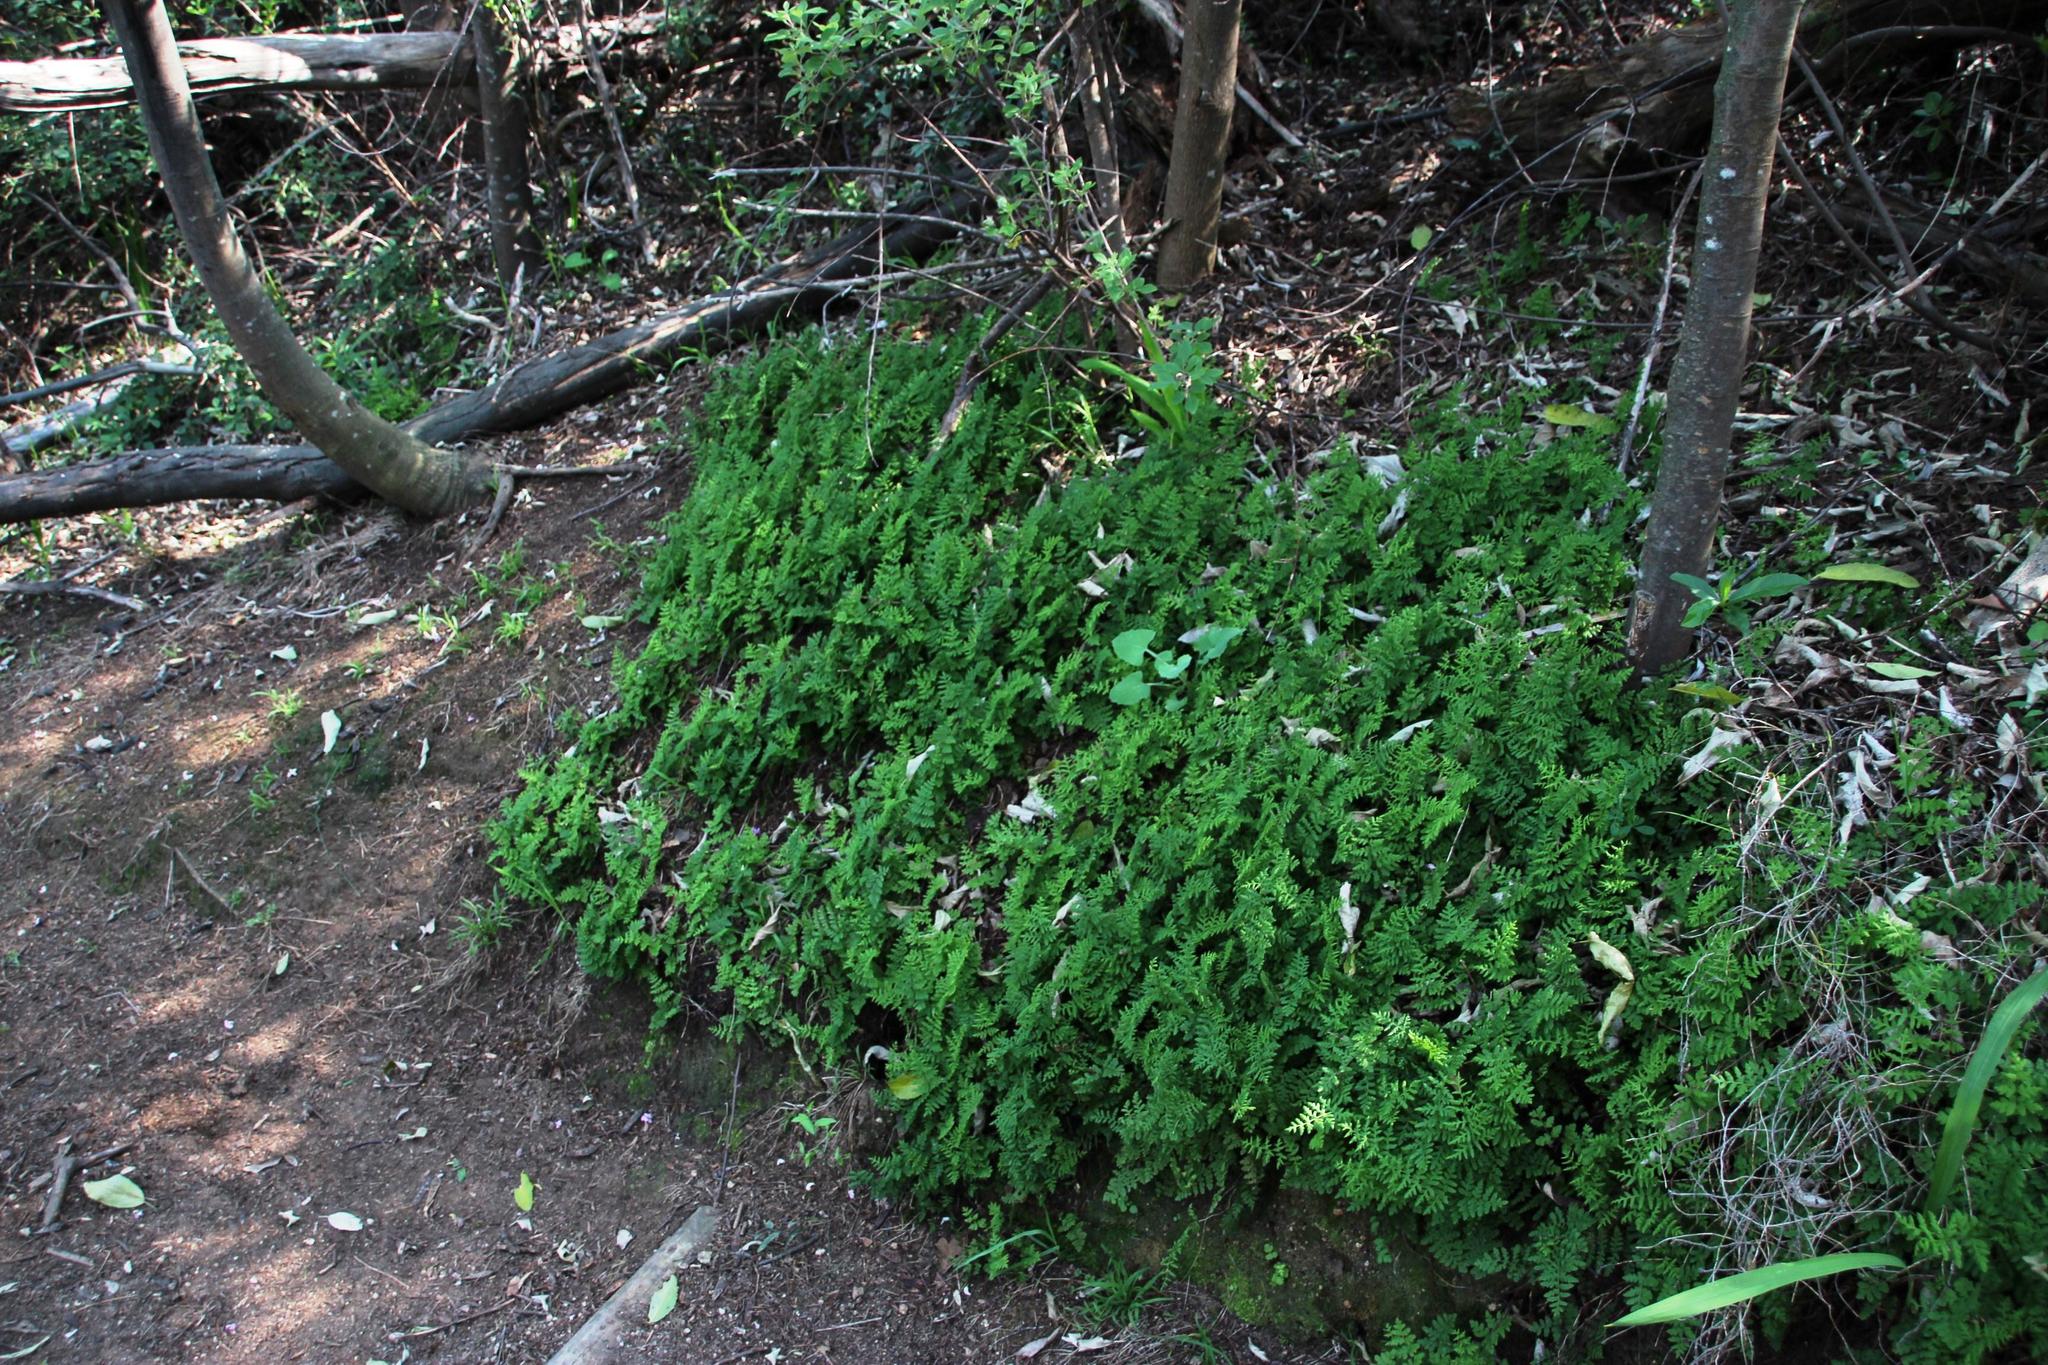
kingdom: Plantae
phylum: Tracheophyta
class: Polypodiopsida
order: Polypodiales
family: Pteridaceae
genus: Cheilanthes
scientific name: Cheilanthes capensis
